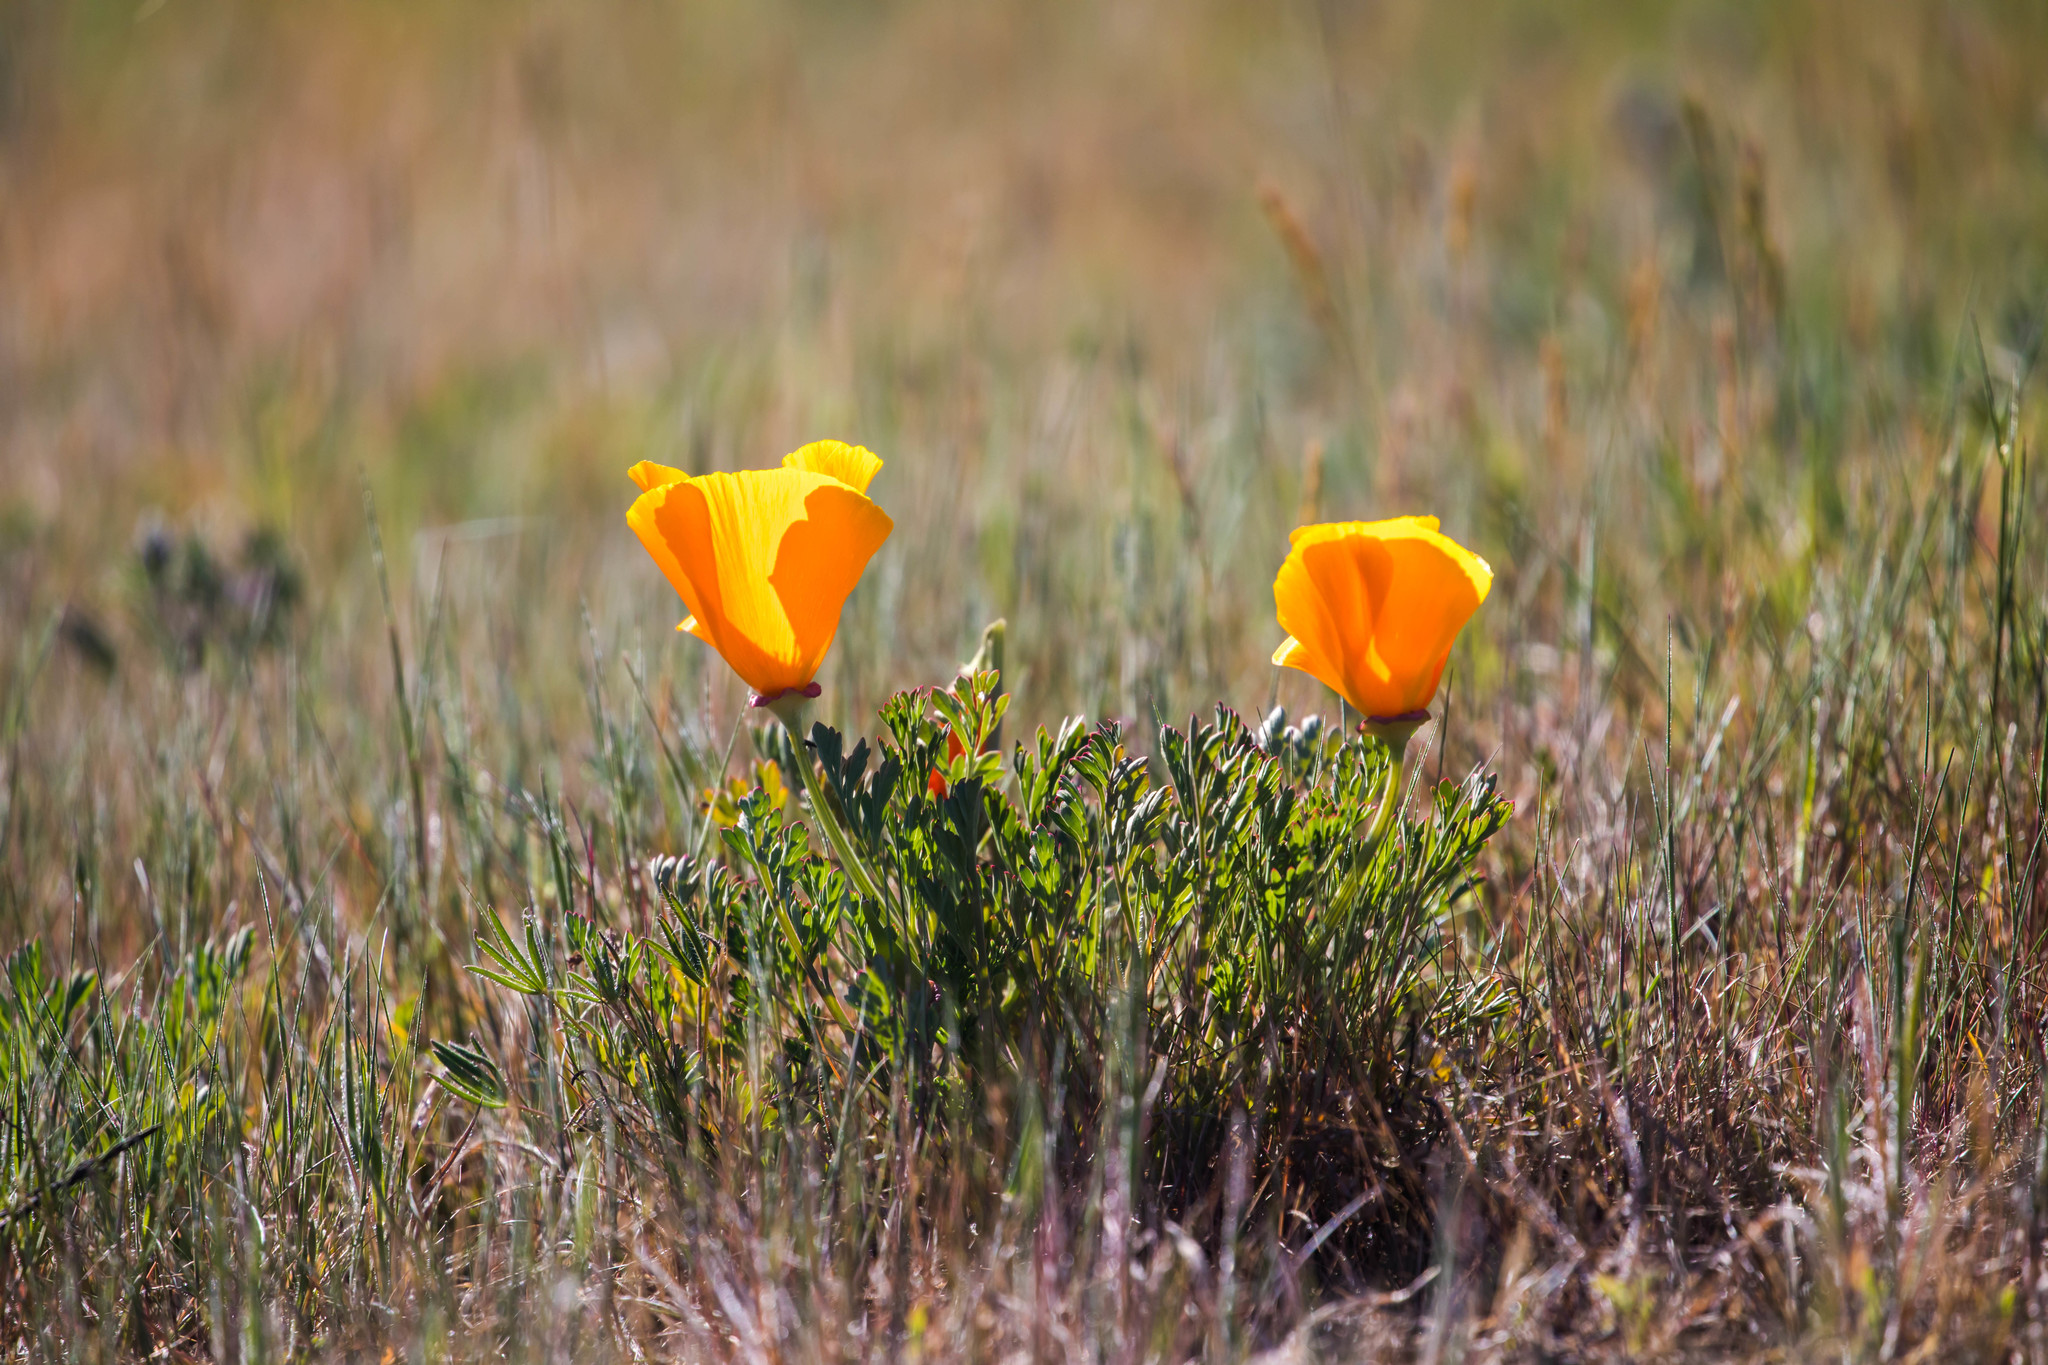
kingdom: Plantae
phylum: Tracheophyta
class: Magnoliopsida
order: Ranunculales
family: Papaveraceae
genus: Eschscholzia
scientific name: Eschscholzia californica
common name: California poppy
